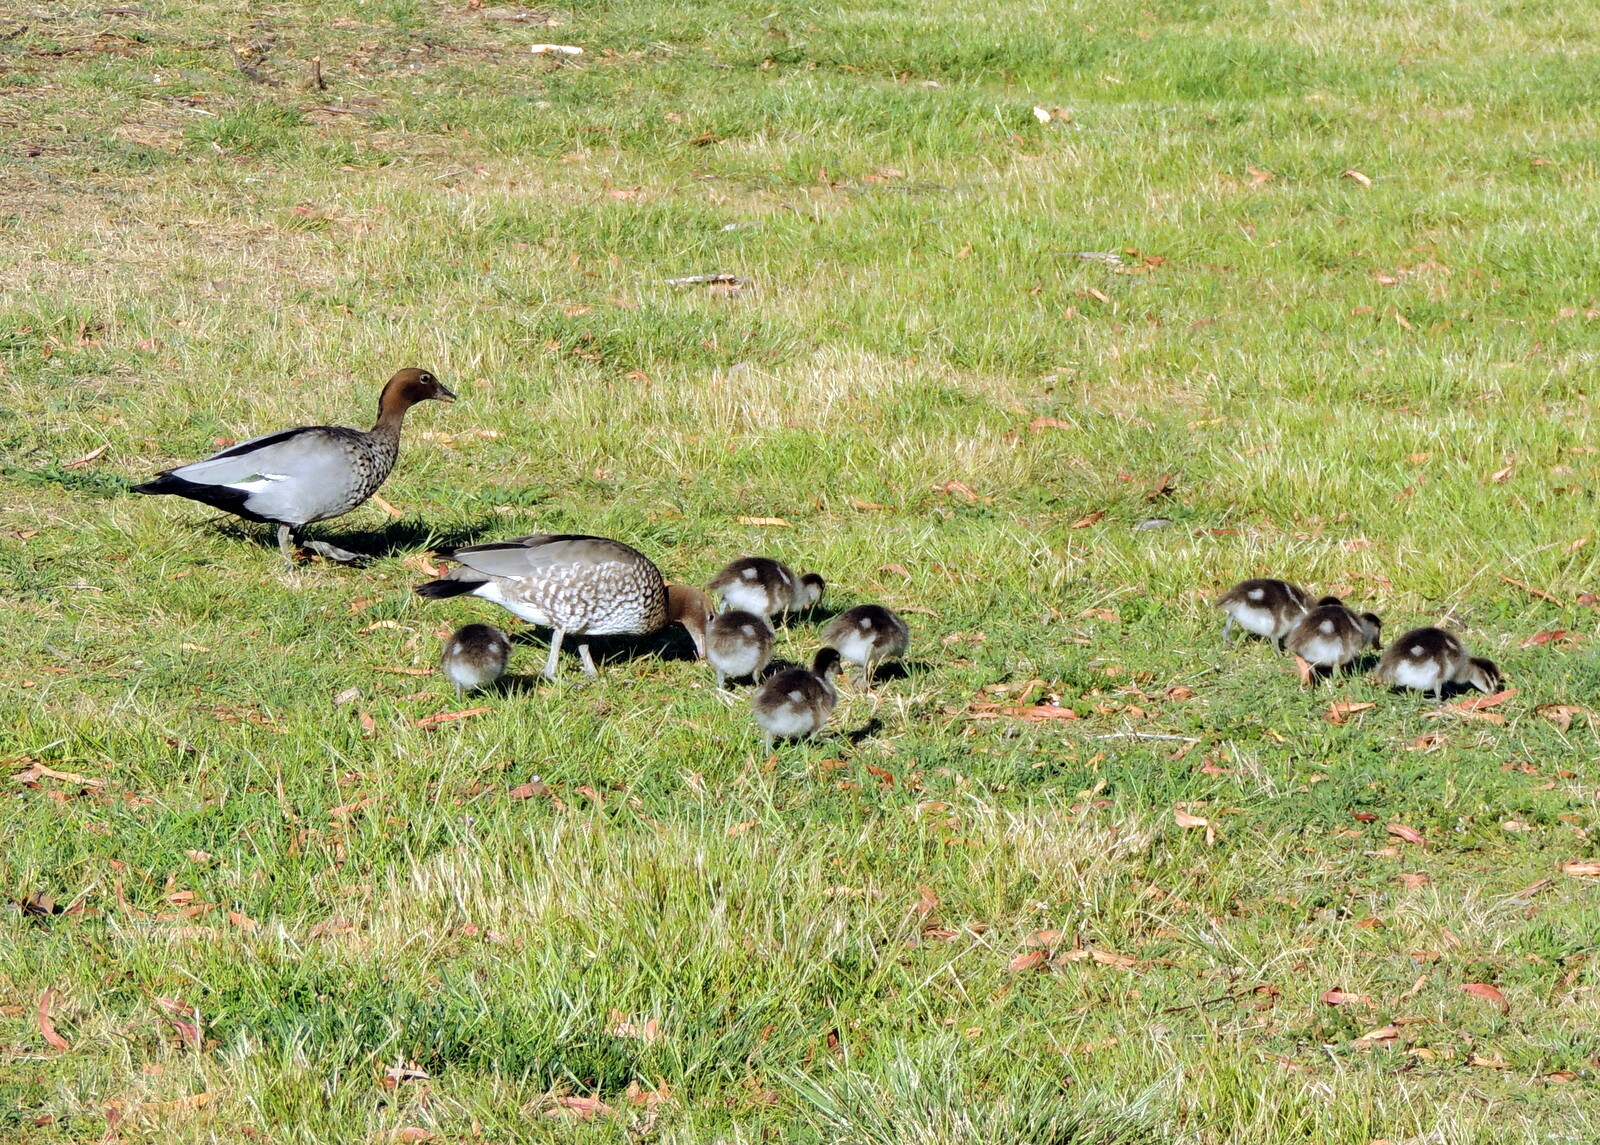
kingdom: Animalia
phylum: Chordata
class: Aves
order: Anseriformes
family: Anatidae
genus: Chenonetta
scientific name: Chenonetta jubata
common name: Maned duck
